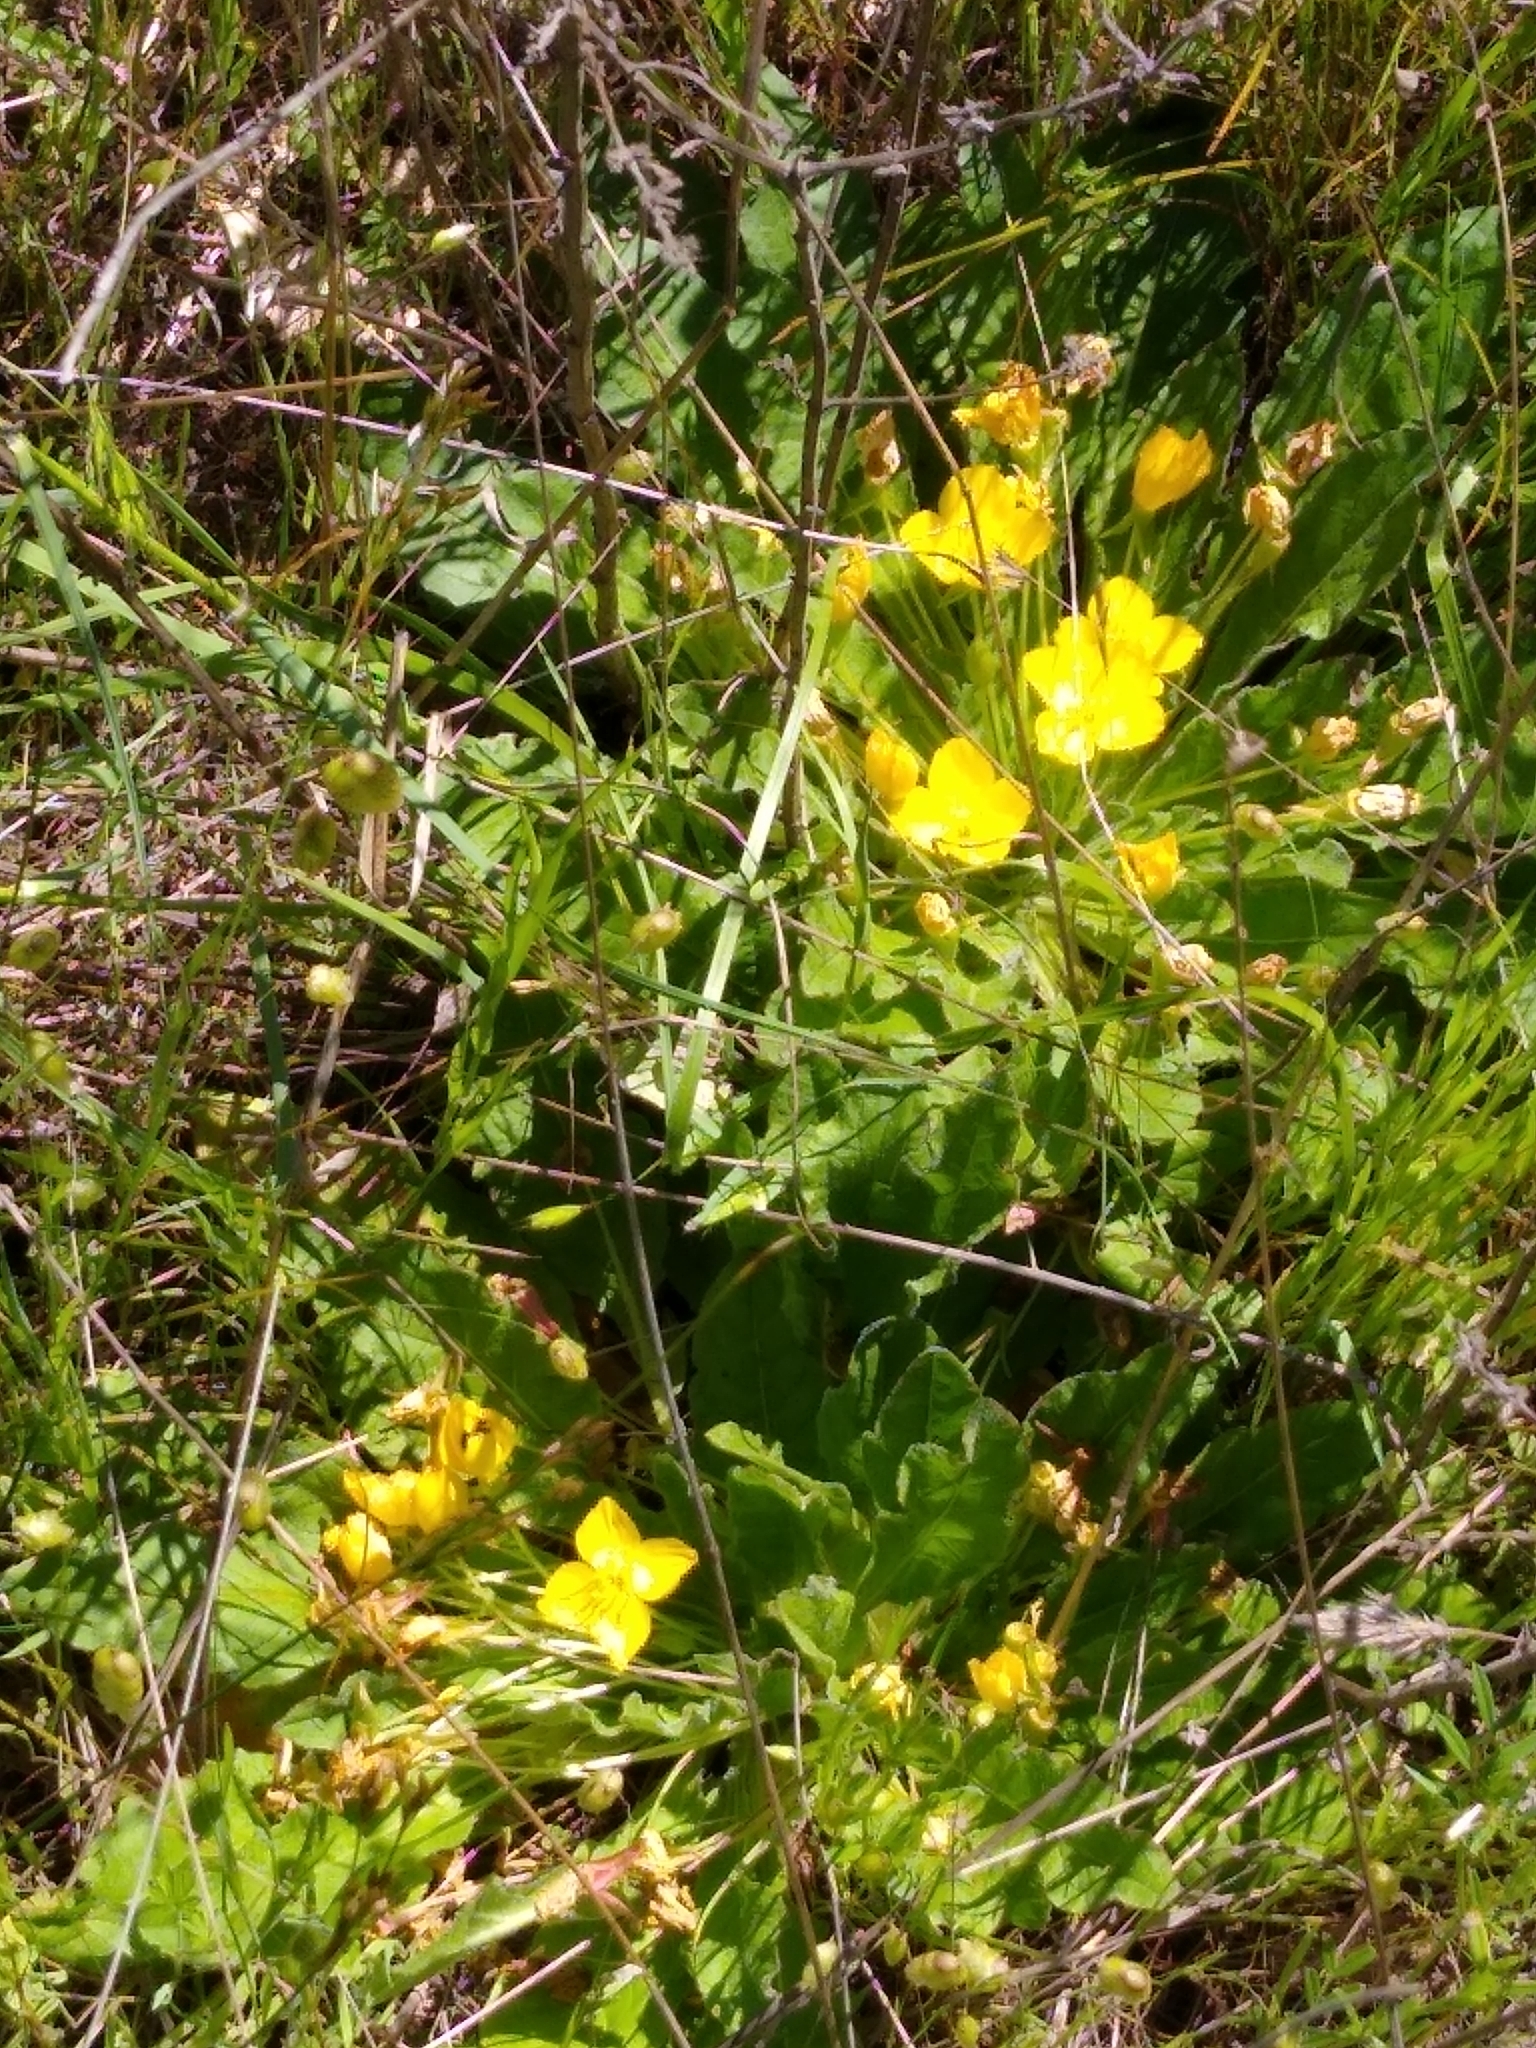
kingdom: Plantae
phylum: Tracheophyta
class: Magnoliopsida
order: Myrtales
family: Onagraceae
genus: Taraxia
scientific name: Taraxia ovata
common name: Goldeneggs
